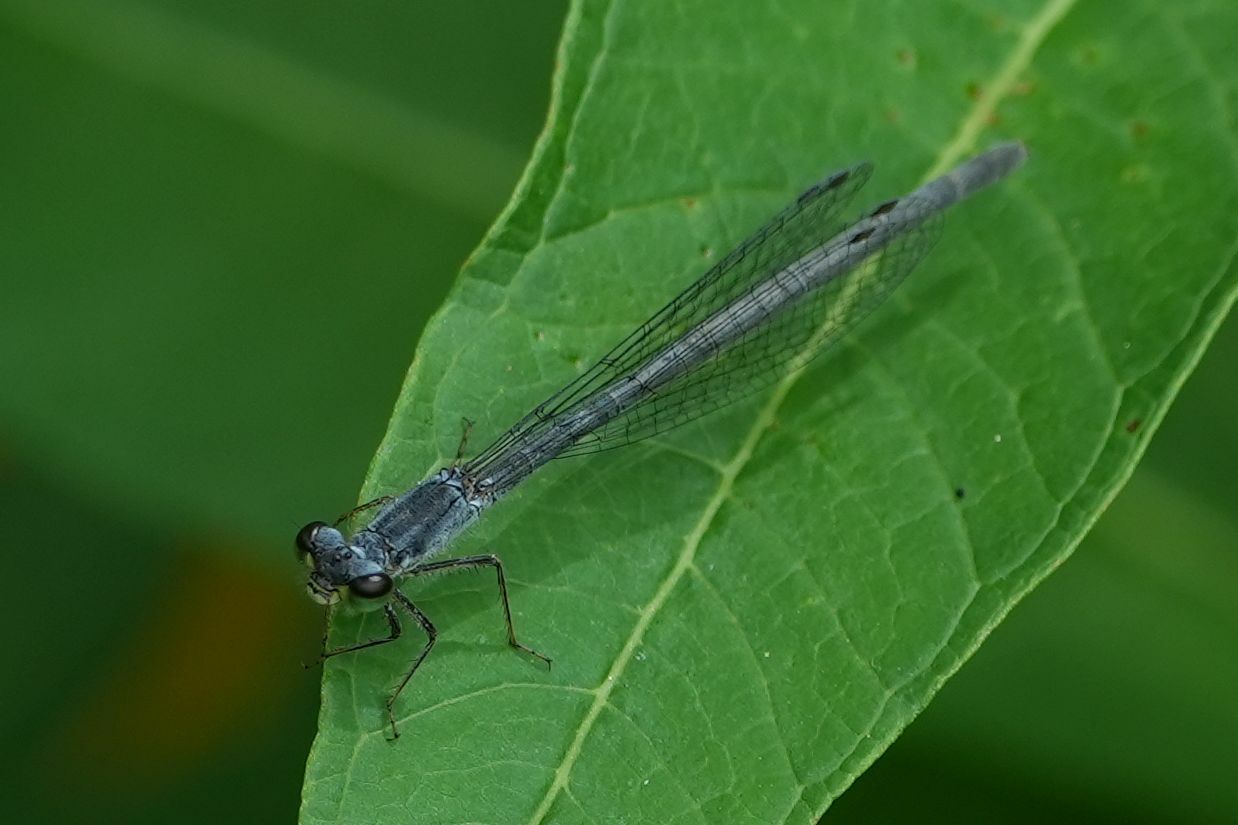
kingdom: Animalia
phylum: Arthropoda
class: Insecta
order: Odonata
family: Coenagrionidae
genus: Ischnura
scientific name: Ischnura verticalis
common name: Eastern forktail
